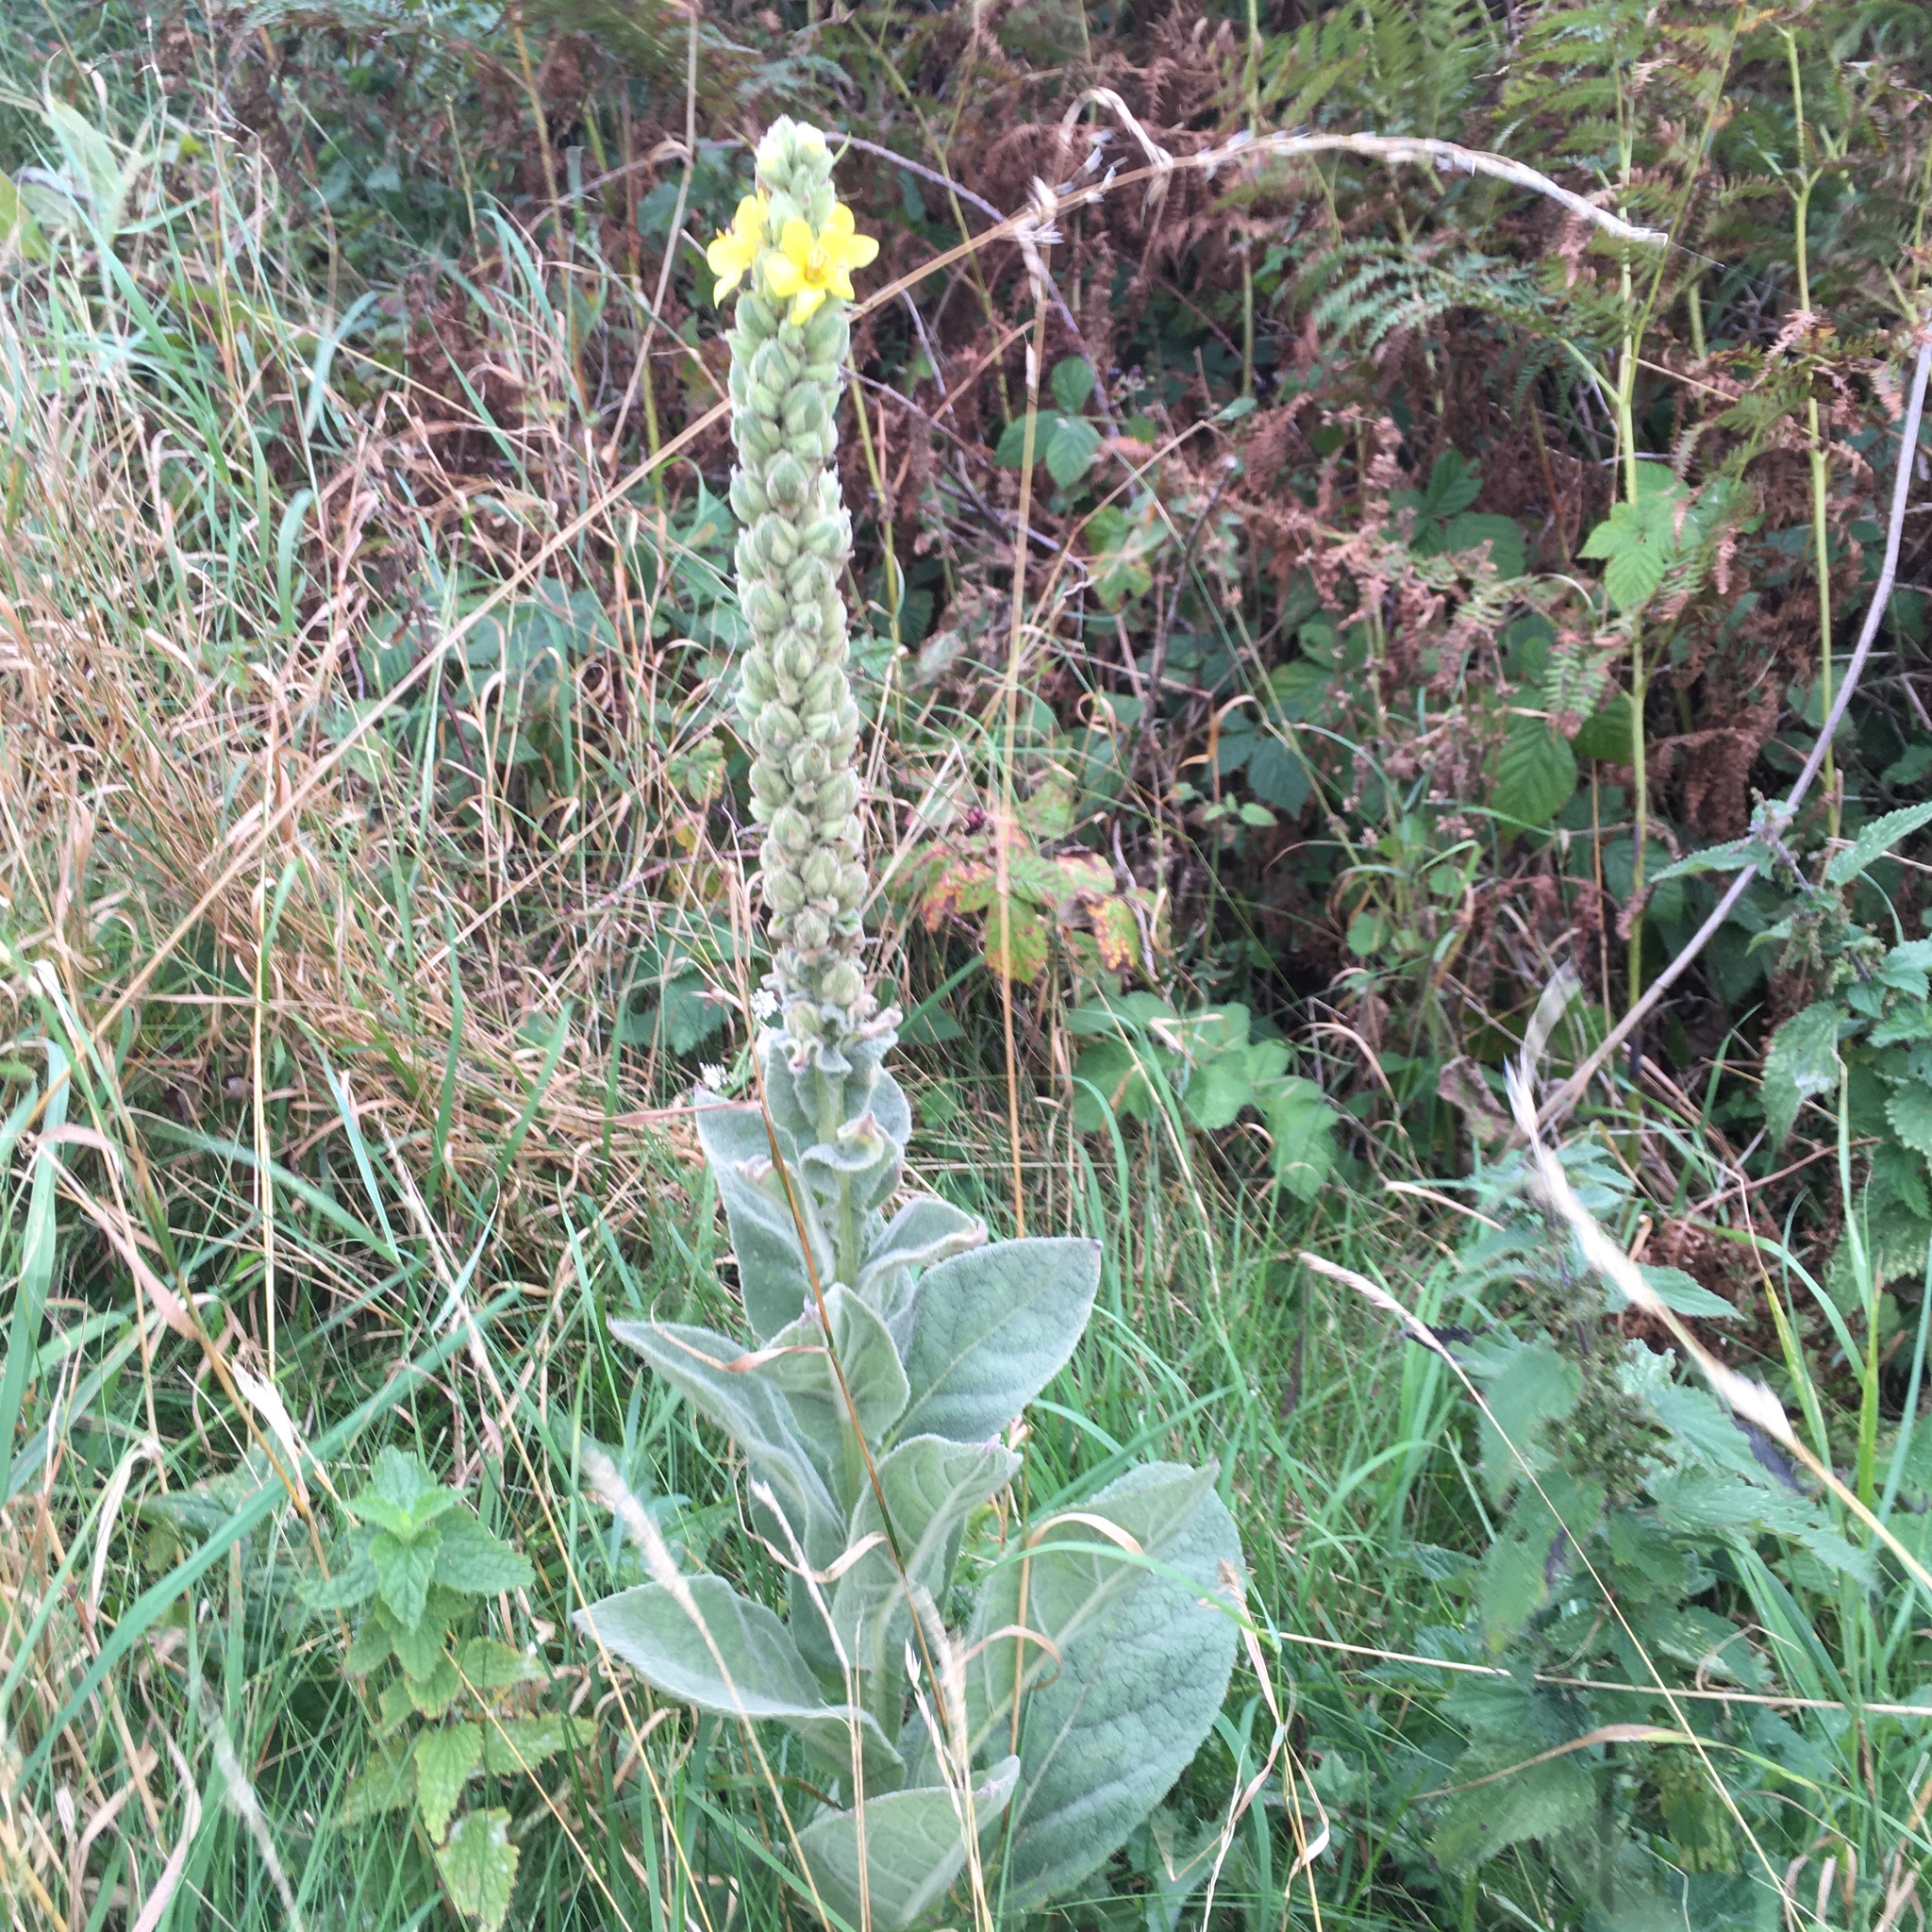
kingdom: Plantae
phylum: Tracheophyta
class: Magnoliopsida
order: Lamiales
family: Scrophulariaceae
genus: Verbascum
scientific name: Verbascum thapsus
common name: Common mullein
